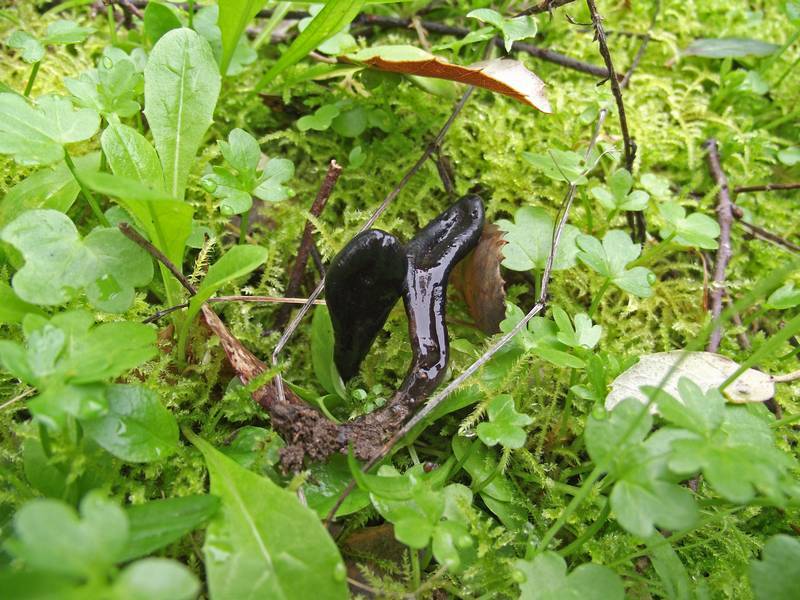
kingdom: Fungi
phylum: Ascomycota
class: Geoglossomycetes
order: Geoglossales
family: Geoglossaceae
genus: Glutinoglossum
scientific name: Glutinoglossum glutinosum
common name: Glutinous earthtongue
